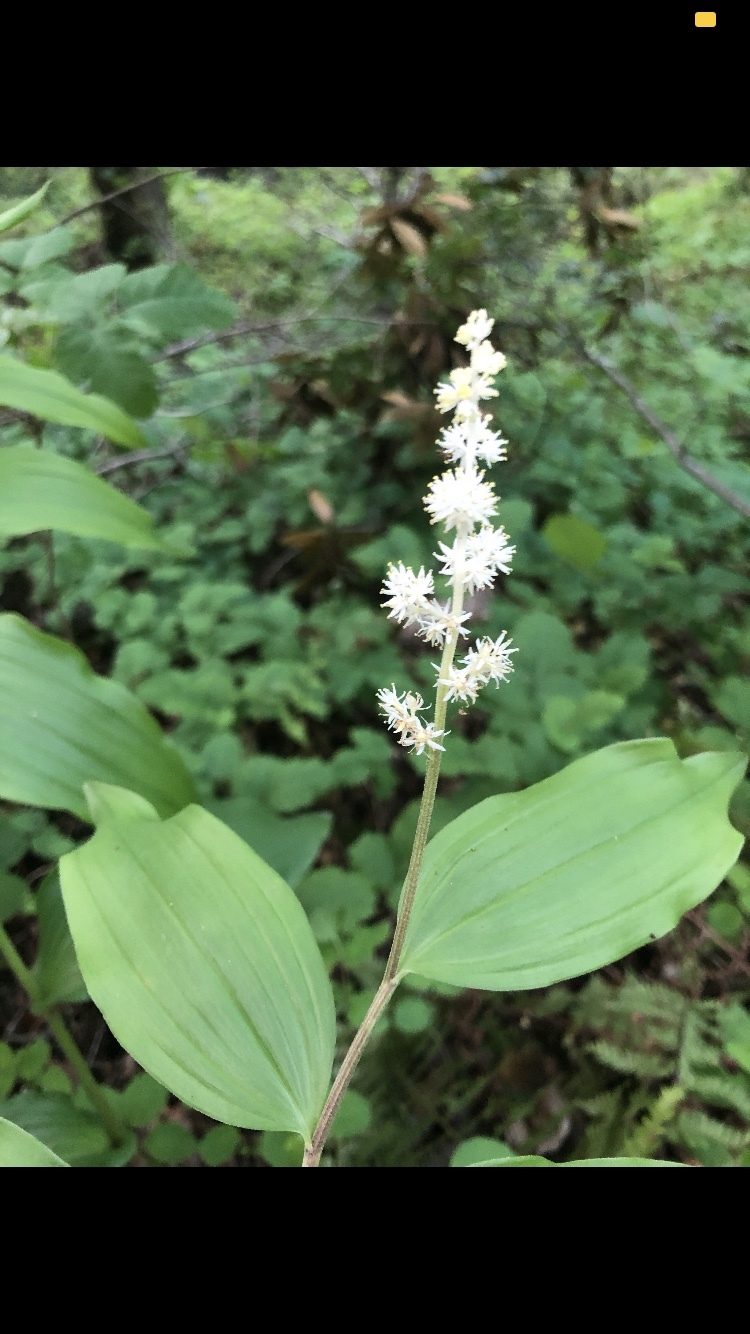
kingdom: Plantae
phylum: Tracheophyta
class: Liliopsida
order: Asparagales
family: Asparagaceae
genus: Maianthemum
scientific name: Maianthemum racemosum
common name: False spikenard
